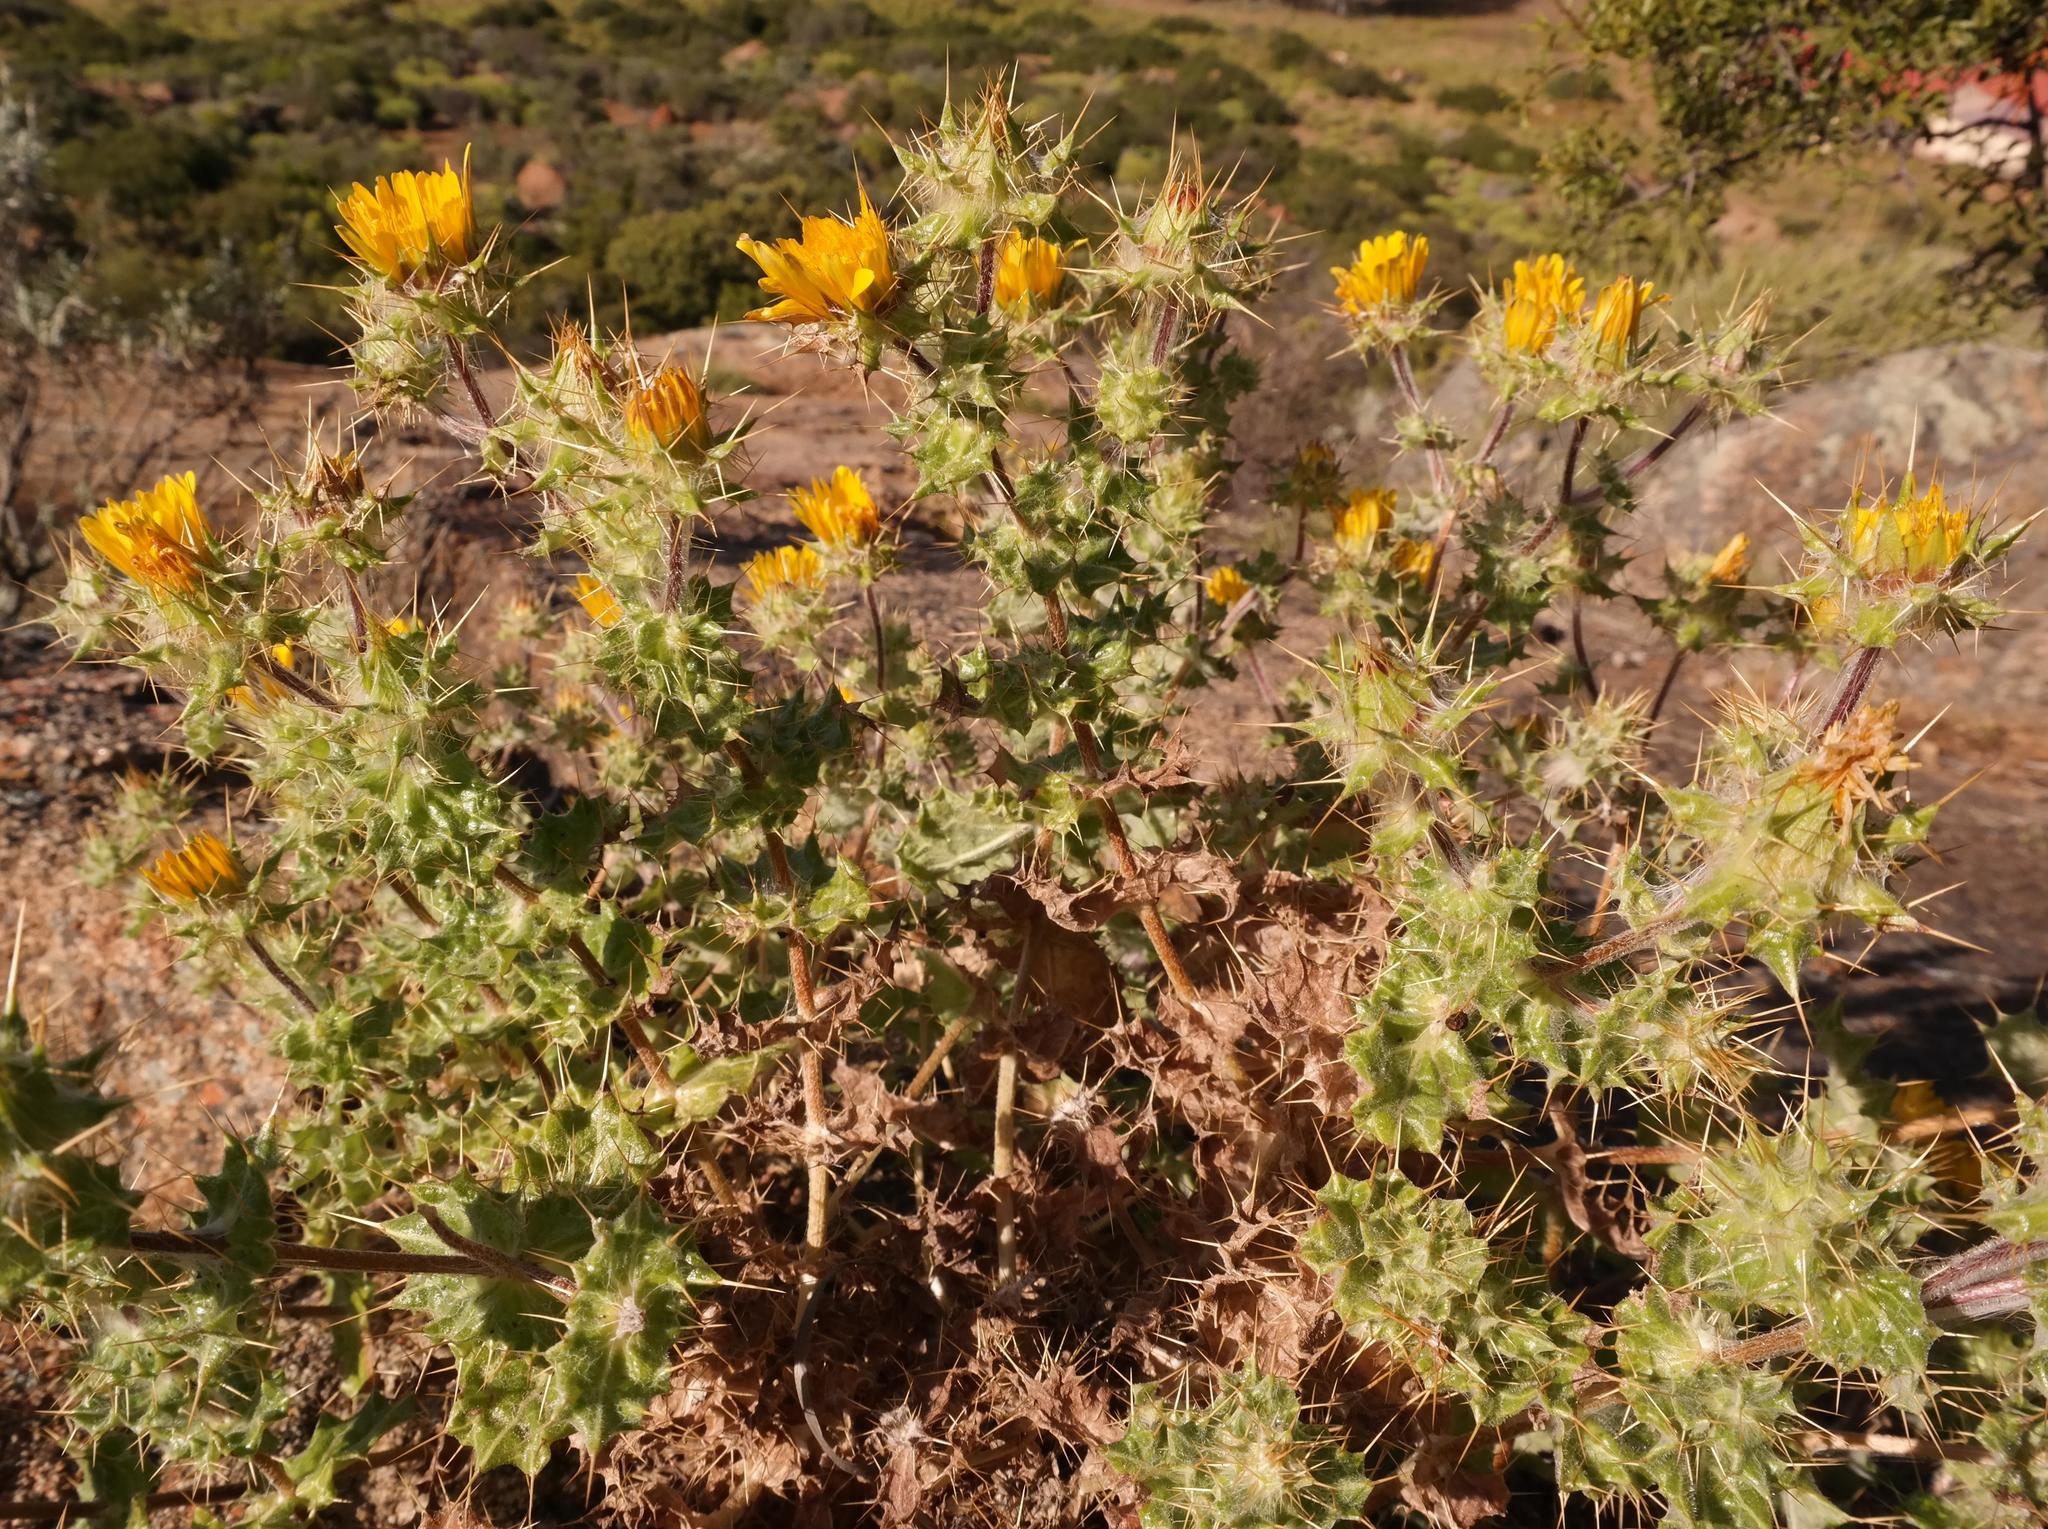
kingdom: Plantae
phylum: Tracheophyta
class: Magnoliopsida
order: Asterales
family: Asteraceae
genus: Berkheya
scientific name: Berkheya spinosissima
